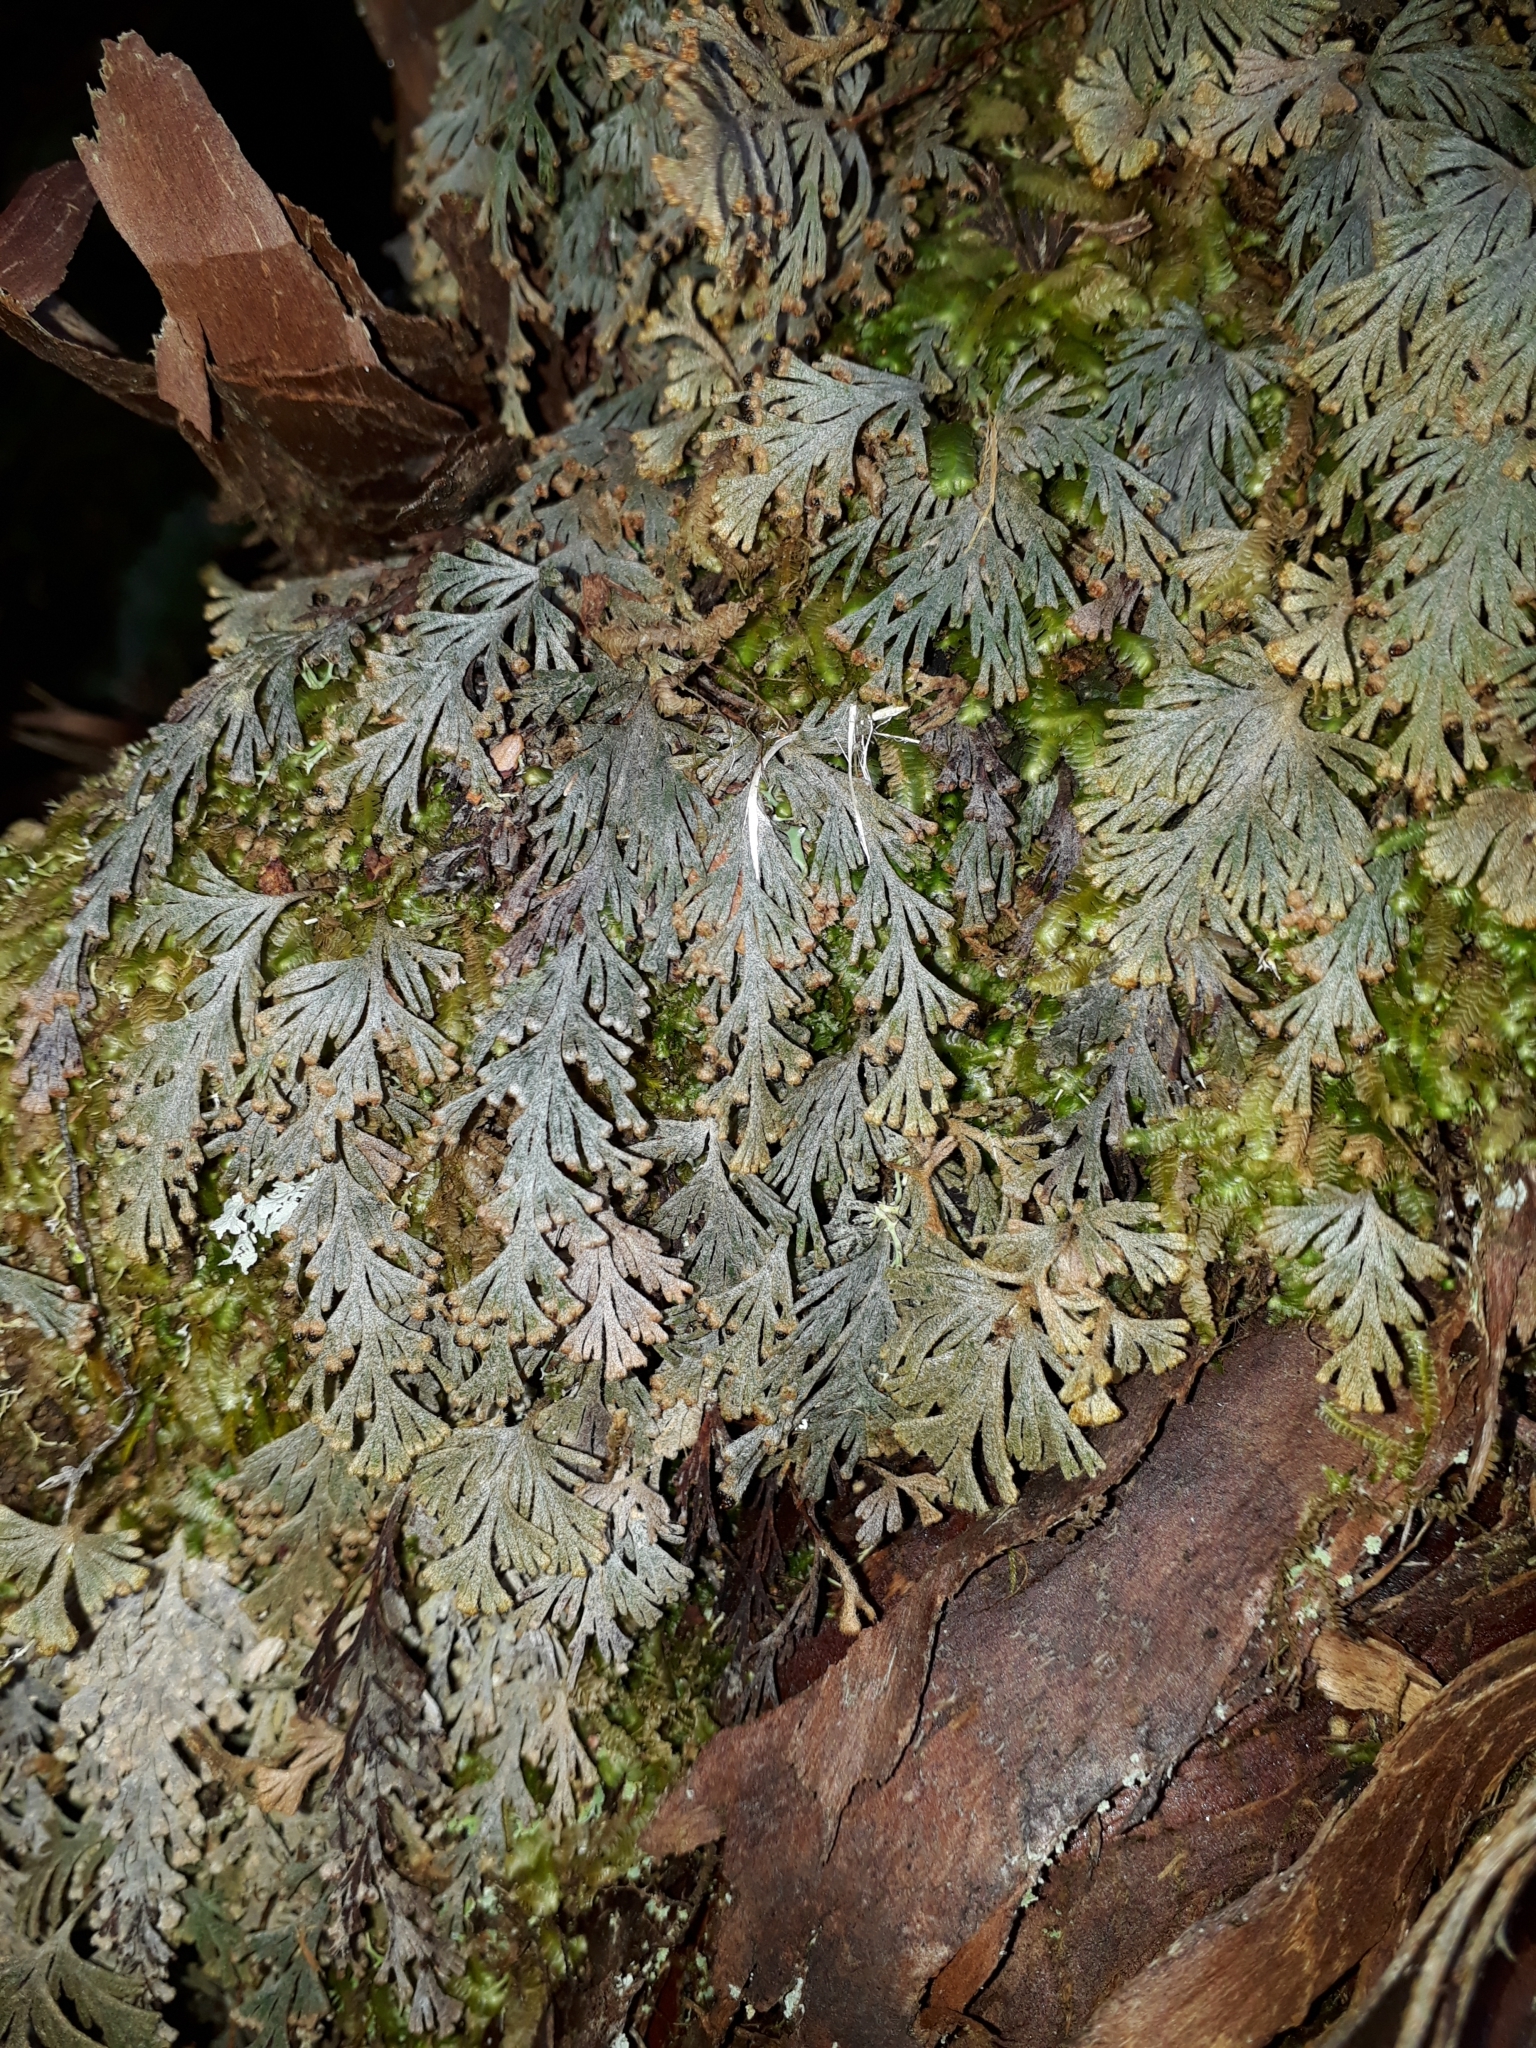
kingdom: Plantae
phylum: Tracheophyta
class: Polypodiopsida
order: Hymenophyllales
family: Hymenophyllaceae
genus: Hymenophyllum
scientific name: Hymenophyllum malingii
